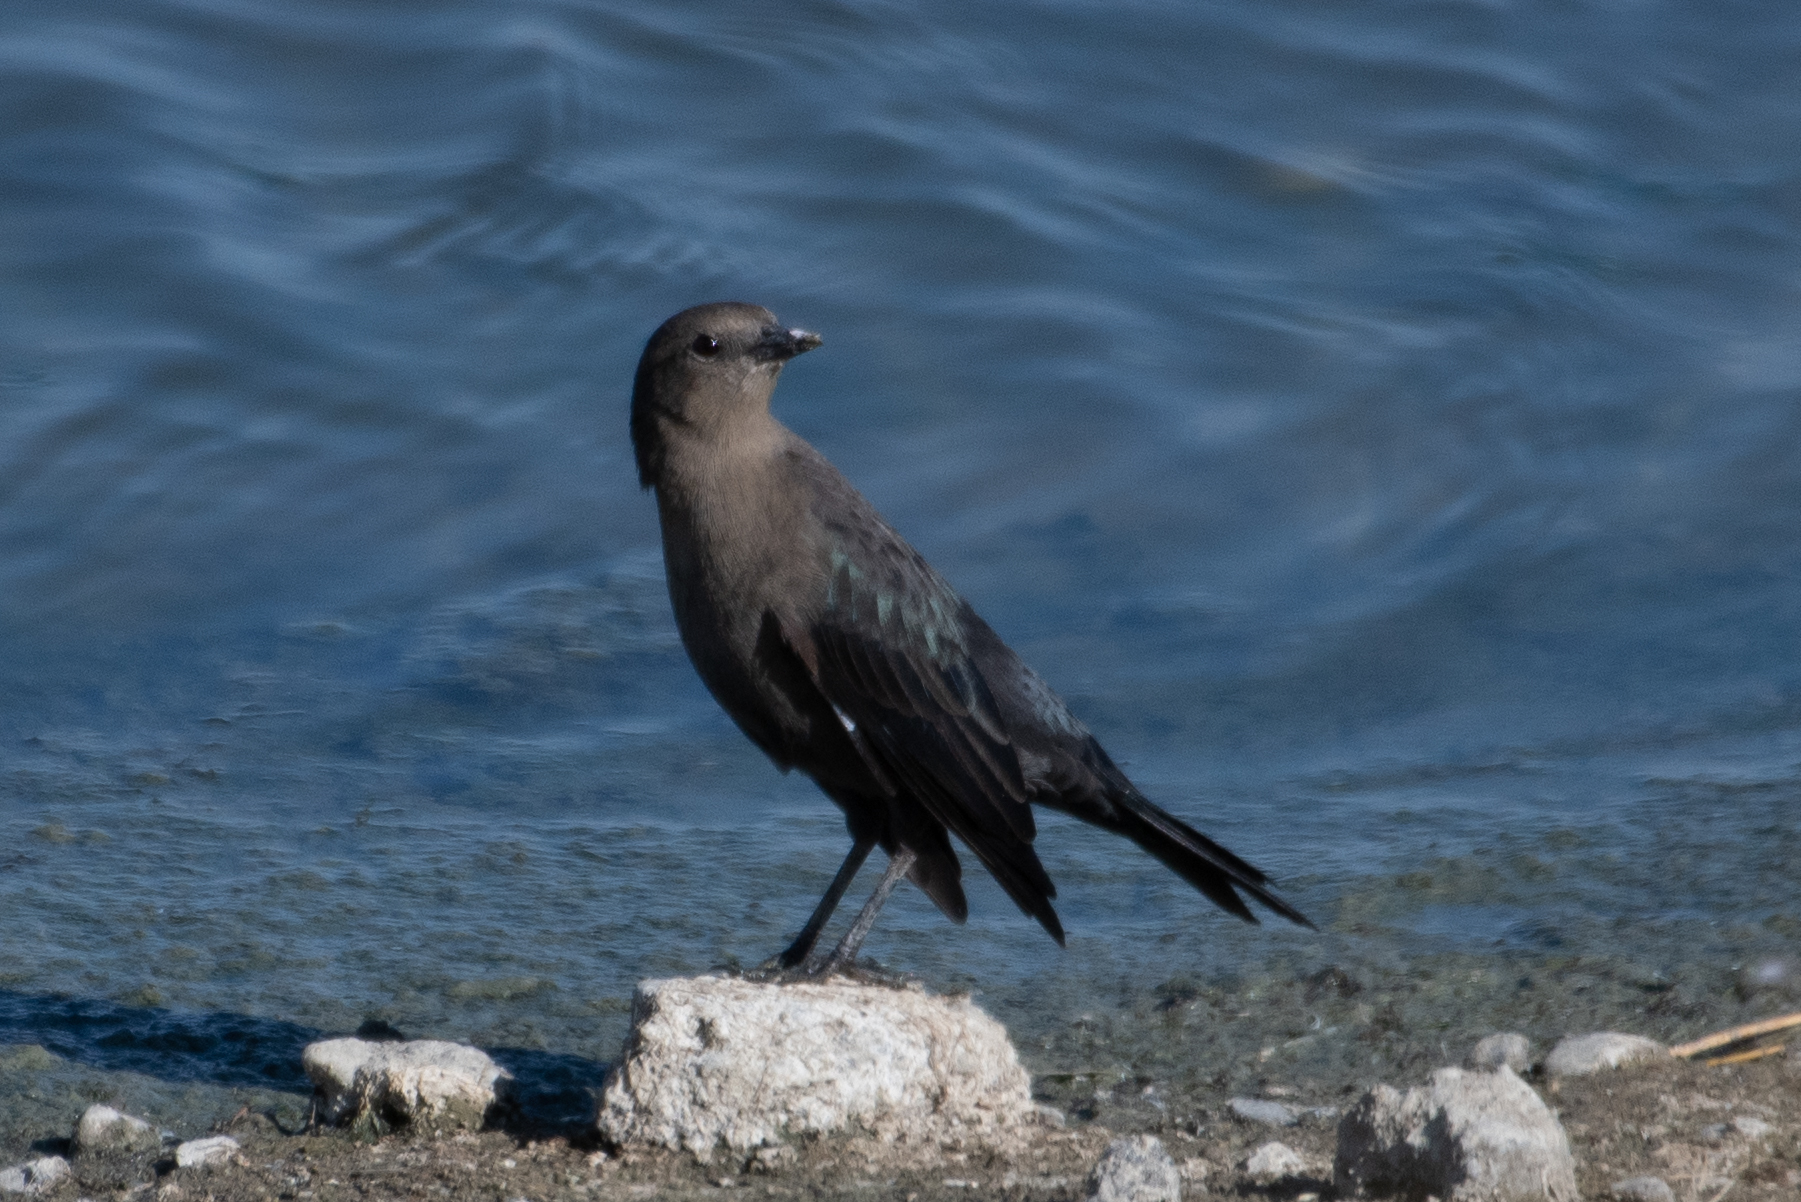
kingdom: Animalia
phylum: Chordata
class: Aves
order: Passeriformes
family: Icteridae
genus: Euphagus
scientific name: Euphagus cyanocephalus
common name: Brewer's blackbird
